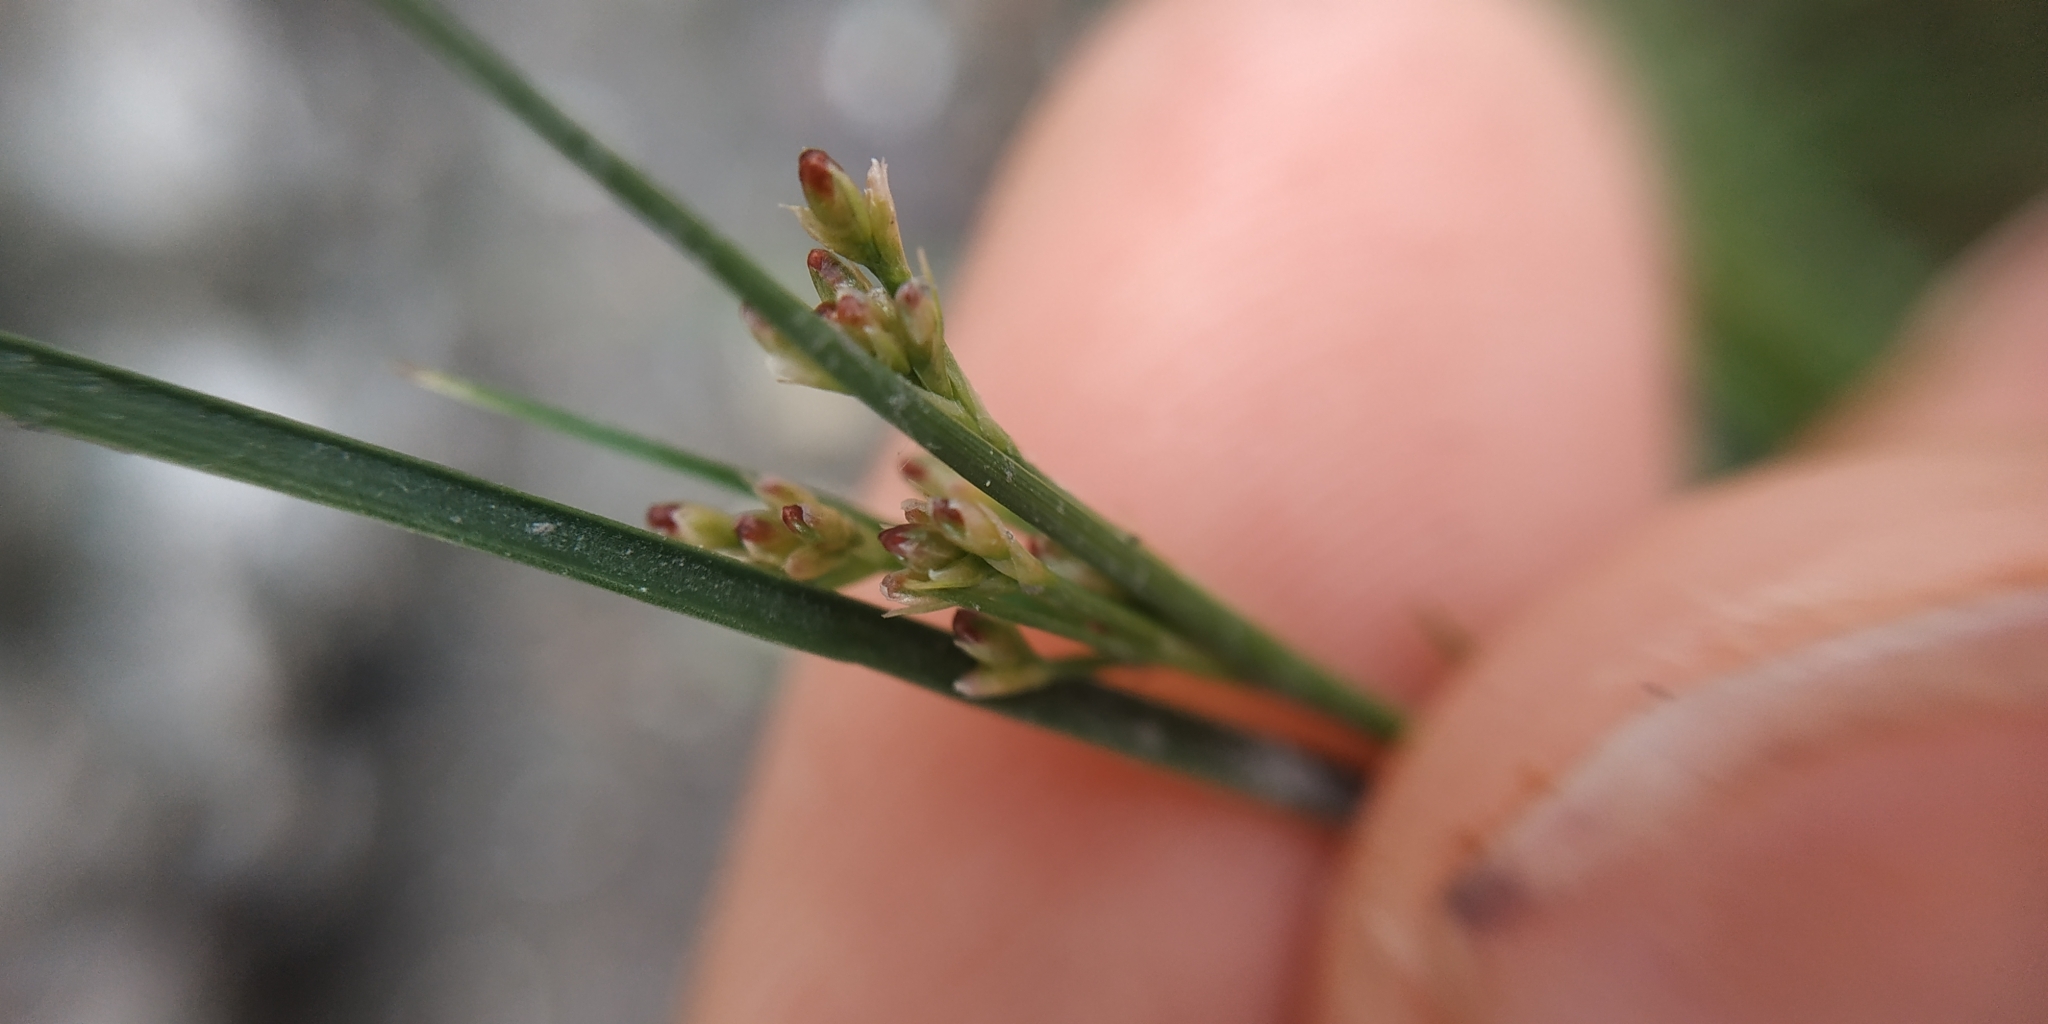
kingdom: Plantae
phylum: Tracheophyta
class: Liliopsida
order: Poales
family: Juncaceae
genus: Juncus
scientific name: Juncus compressus
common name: Round-fruited rush
